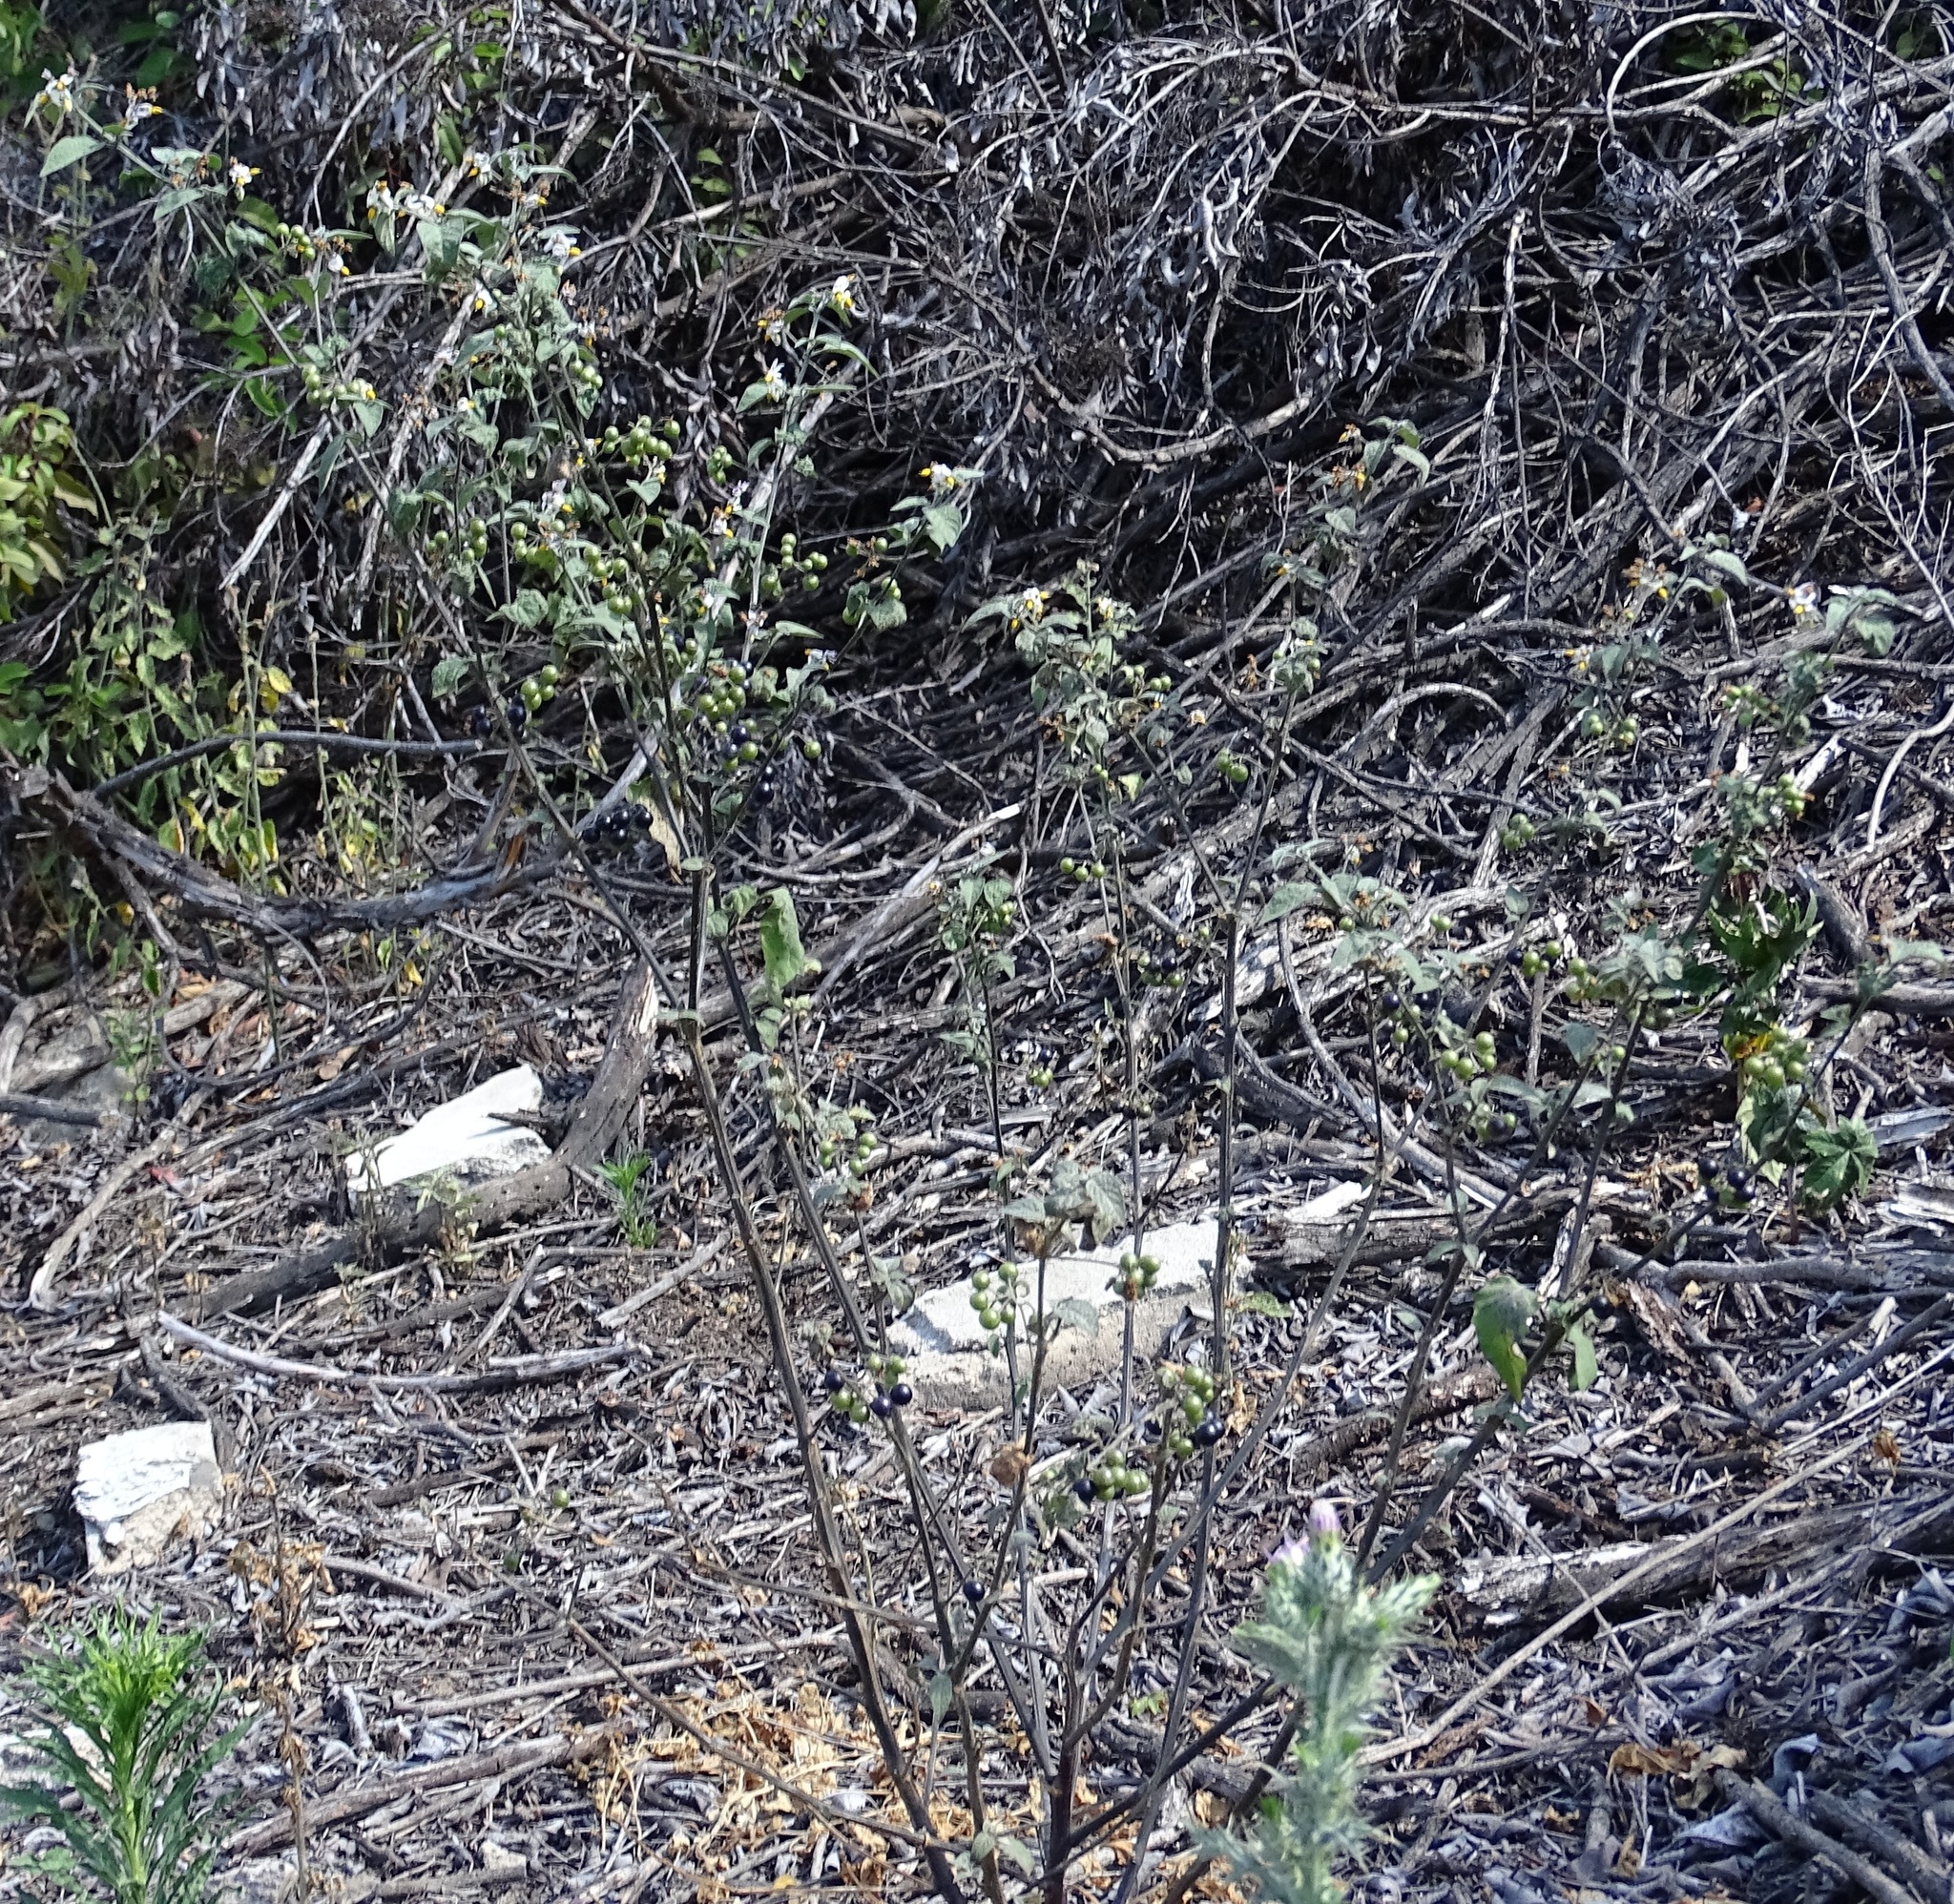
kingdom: Plantae
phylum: Tracheophyta
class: Magnoliopsida
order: Solanales
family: Solanaceae
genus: Solanum
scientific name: Solanum douglasii
